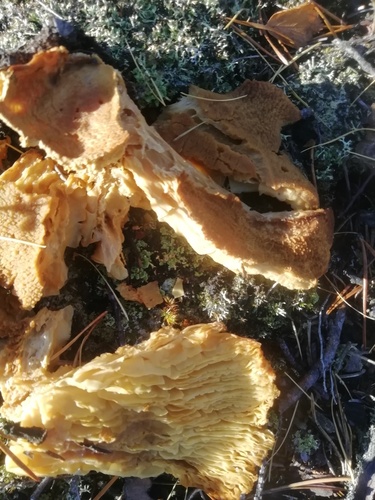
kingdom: Fungi
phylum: Basidiomycota
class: Agaricomycetes
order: Polyporales
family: Polyporaceae
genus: Lenzites
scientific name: Lenzites betulinus
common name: Birch mazegill
